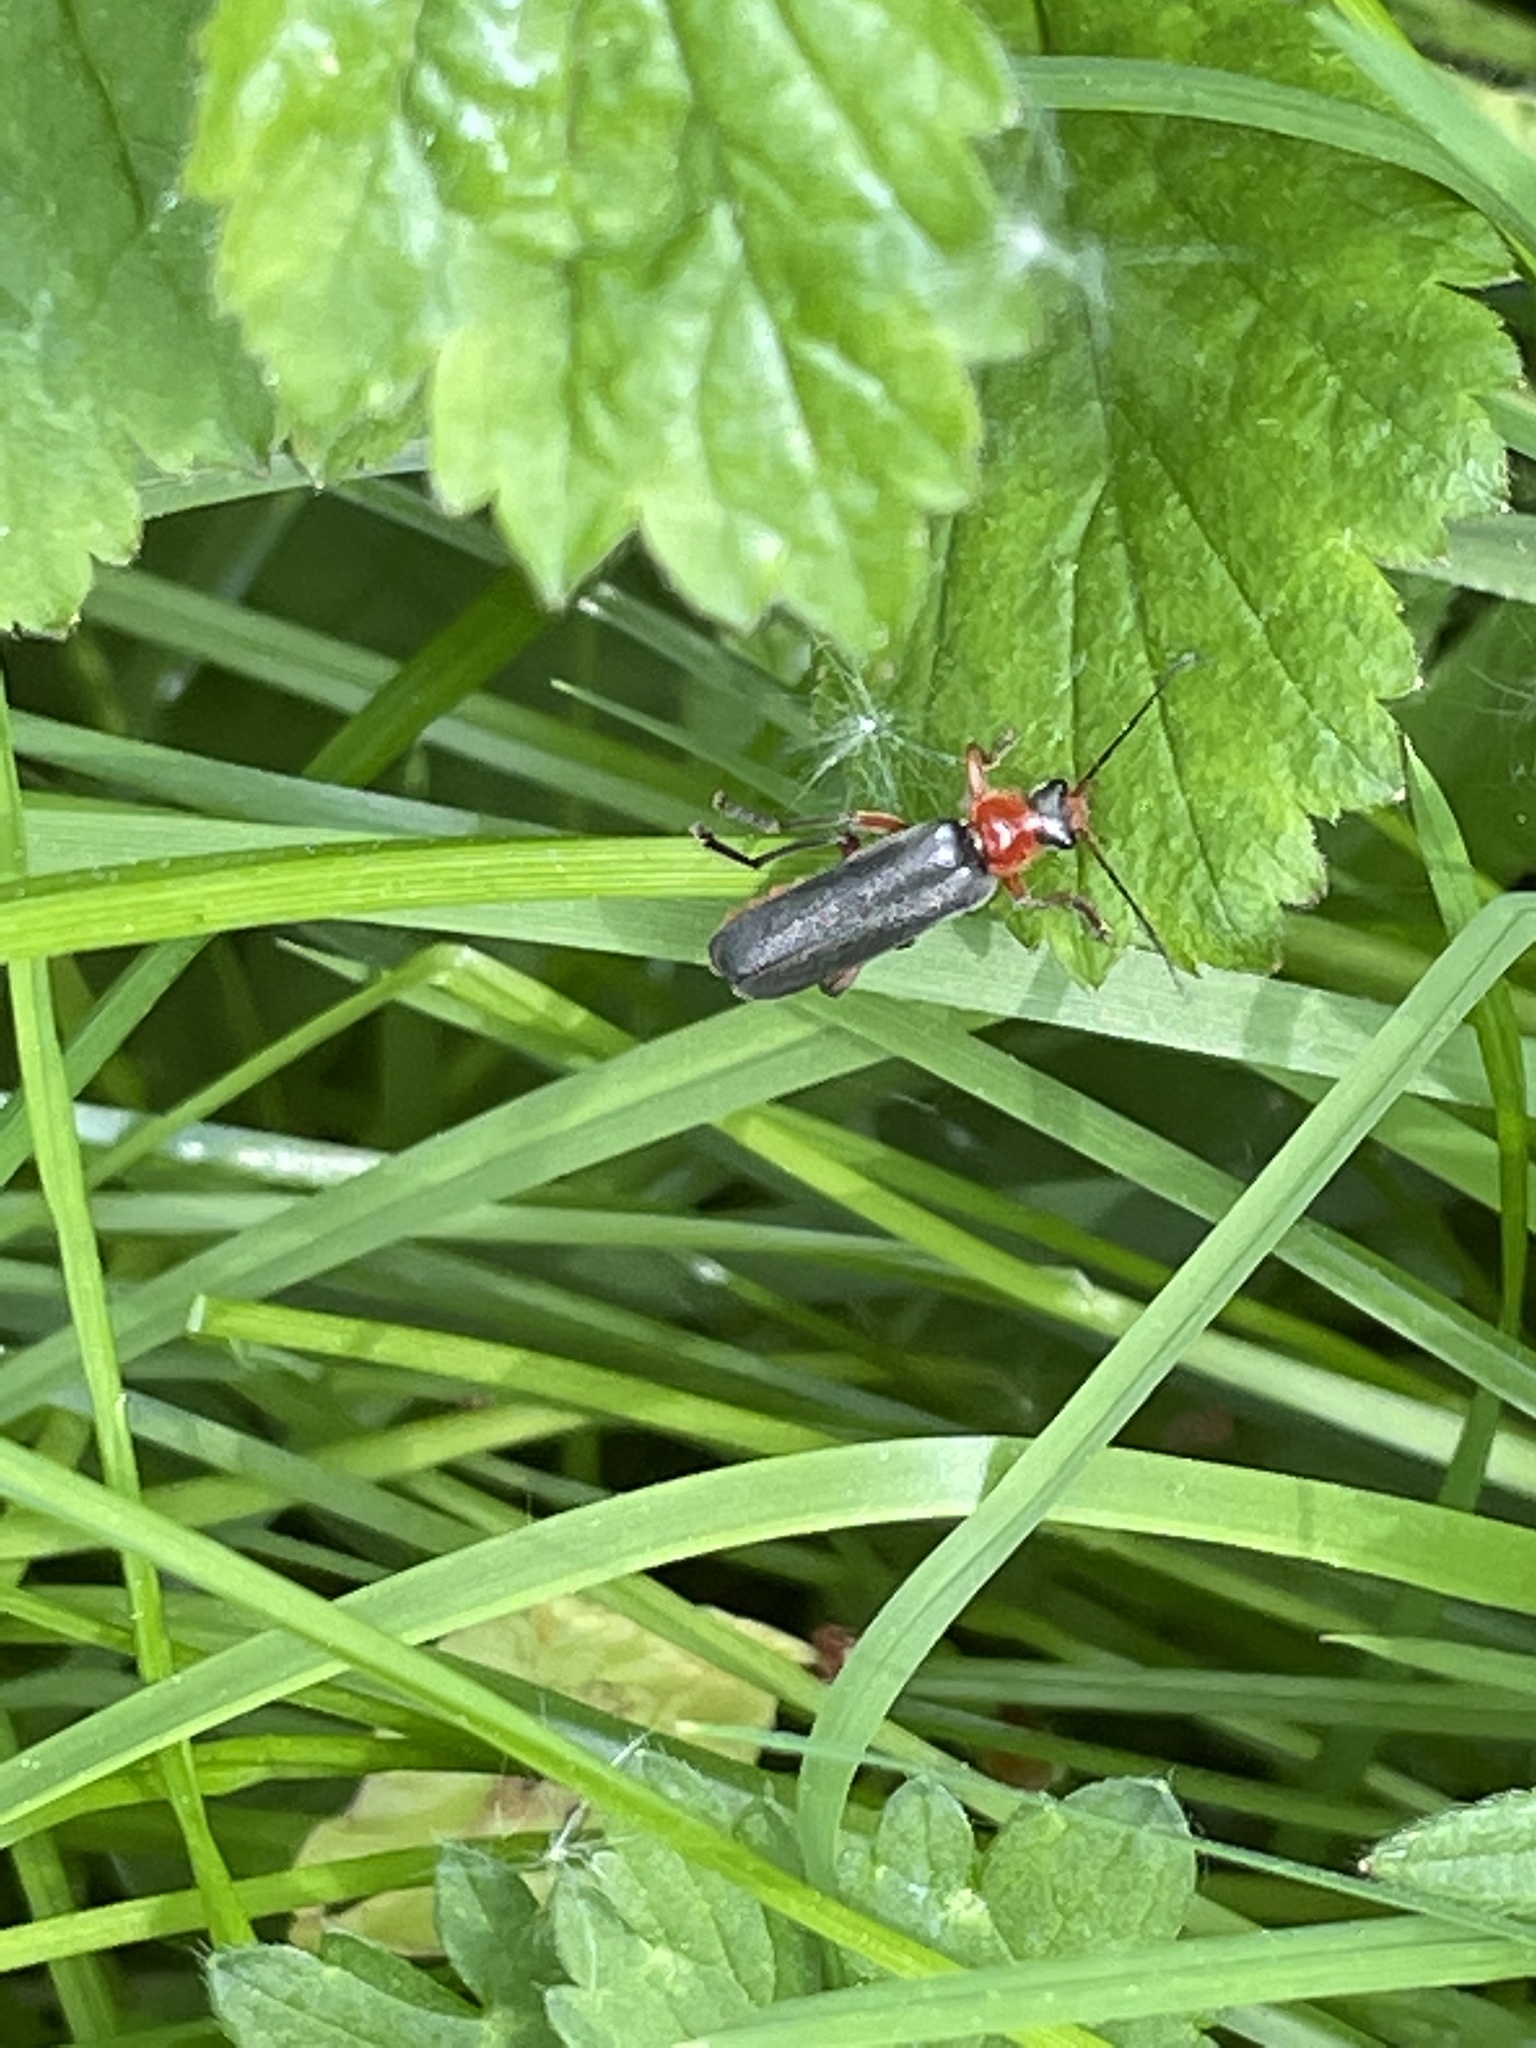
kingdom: Animalia
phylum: Arthropoda
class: Insecta
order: Coleoptera
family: Cantharidae
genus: Cantharis
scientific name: Cantharis pellucida
